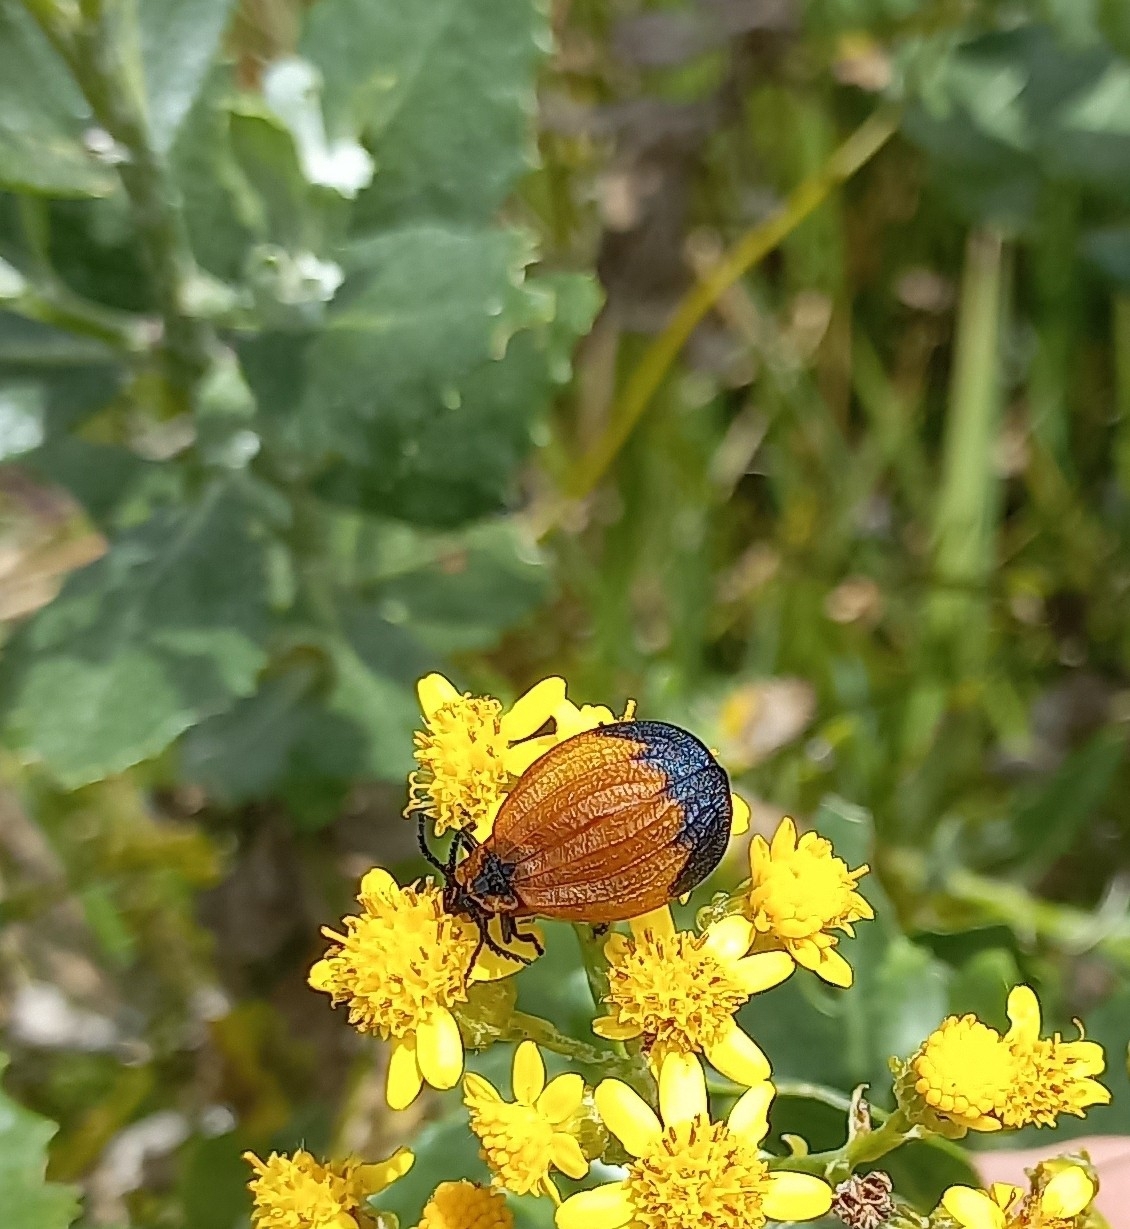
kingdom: Animalia
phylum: Arthropoda
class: Insecta
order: Coleoptera
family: Lycidae
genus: Lycus
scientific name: Lycus
